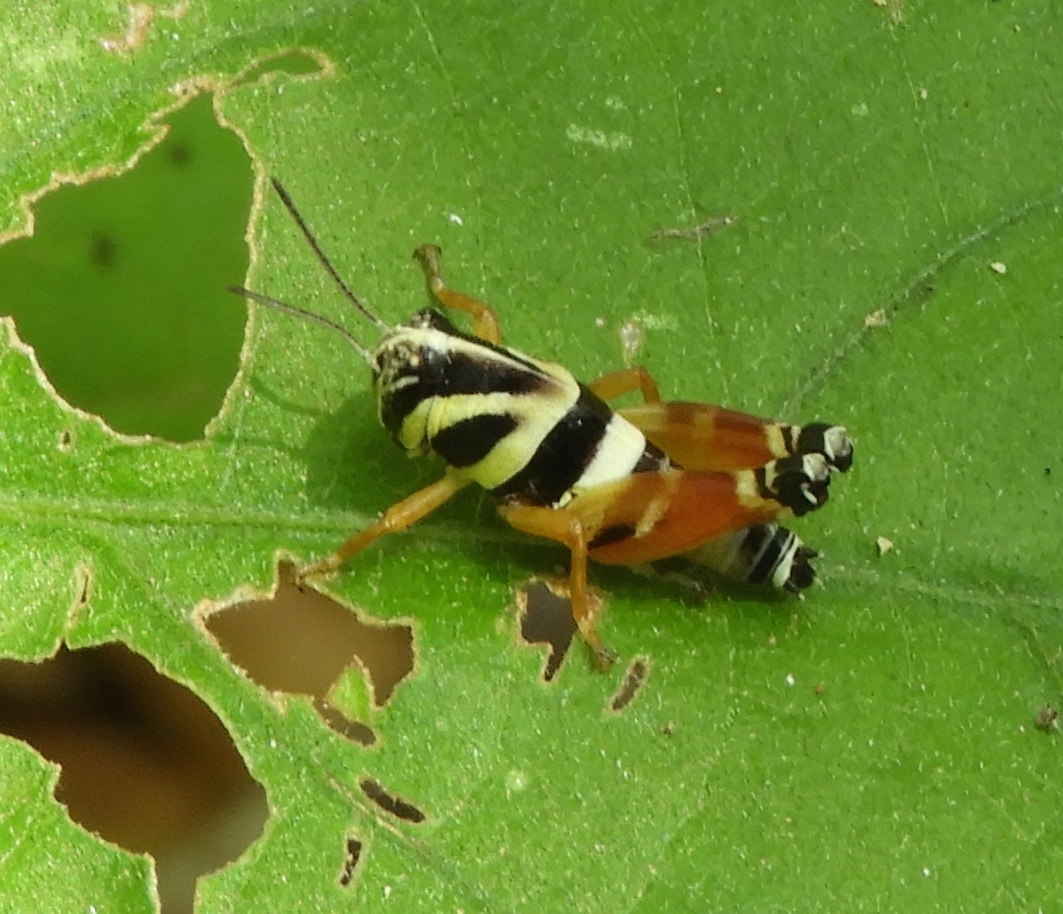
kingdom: Animalia
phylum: Arthropoda
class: Insecta
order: Orthoptera
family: Acrididae
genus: Aidemona
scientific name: Aidemona azteca
